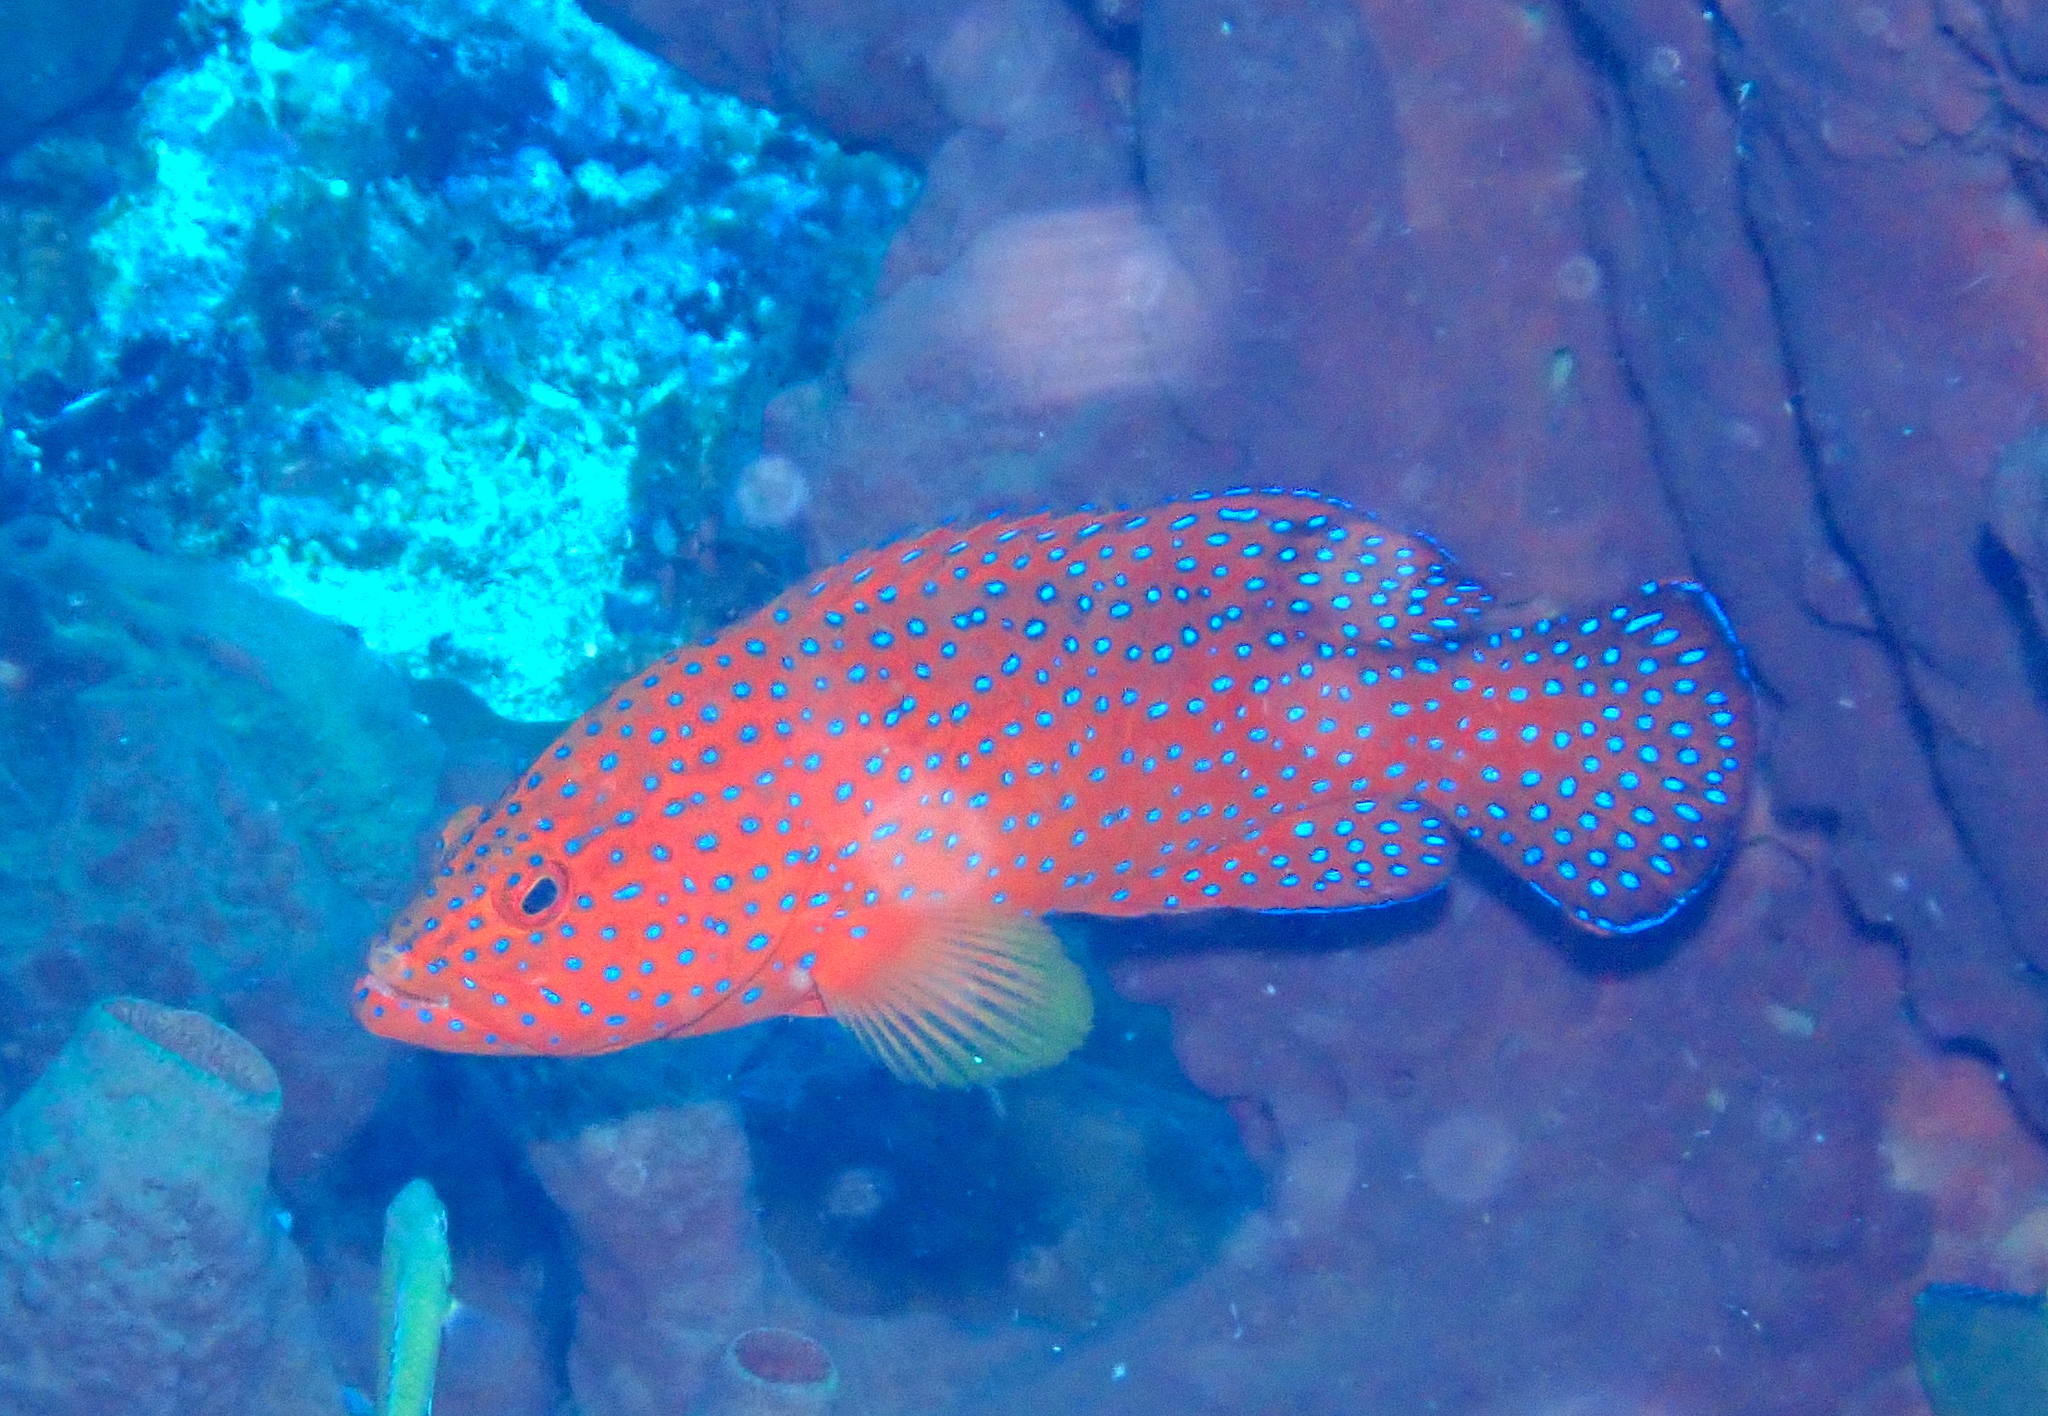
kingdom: Animalia
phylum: Chordata
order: Perciformes
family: Serranidae
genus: Cephalopholis
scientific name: Cephalopholis miniata
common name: Coral hind
